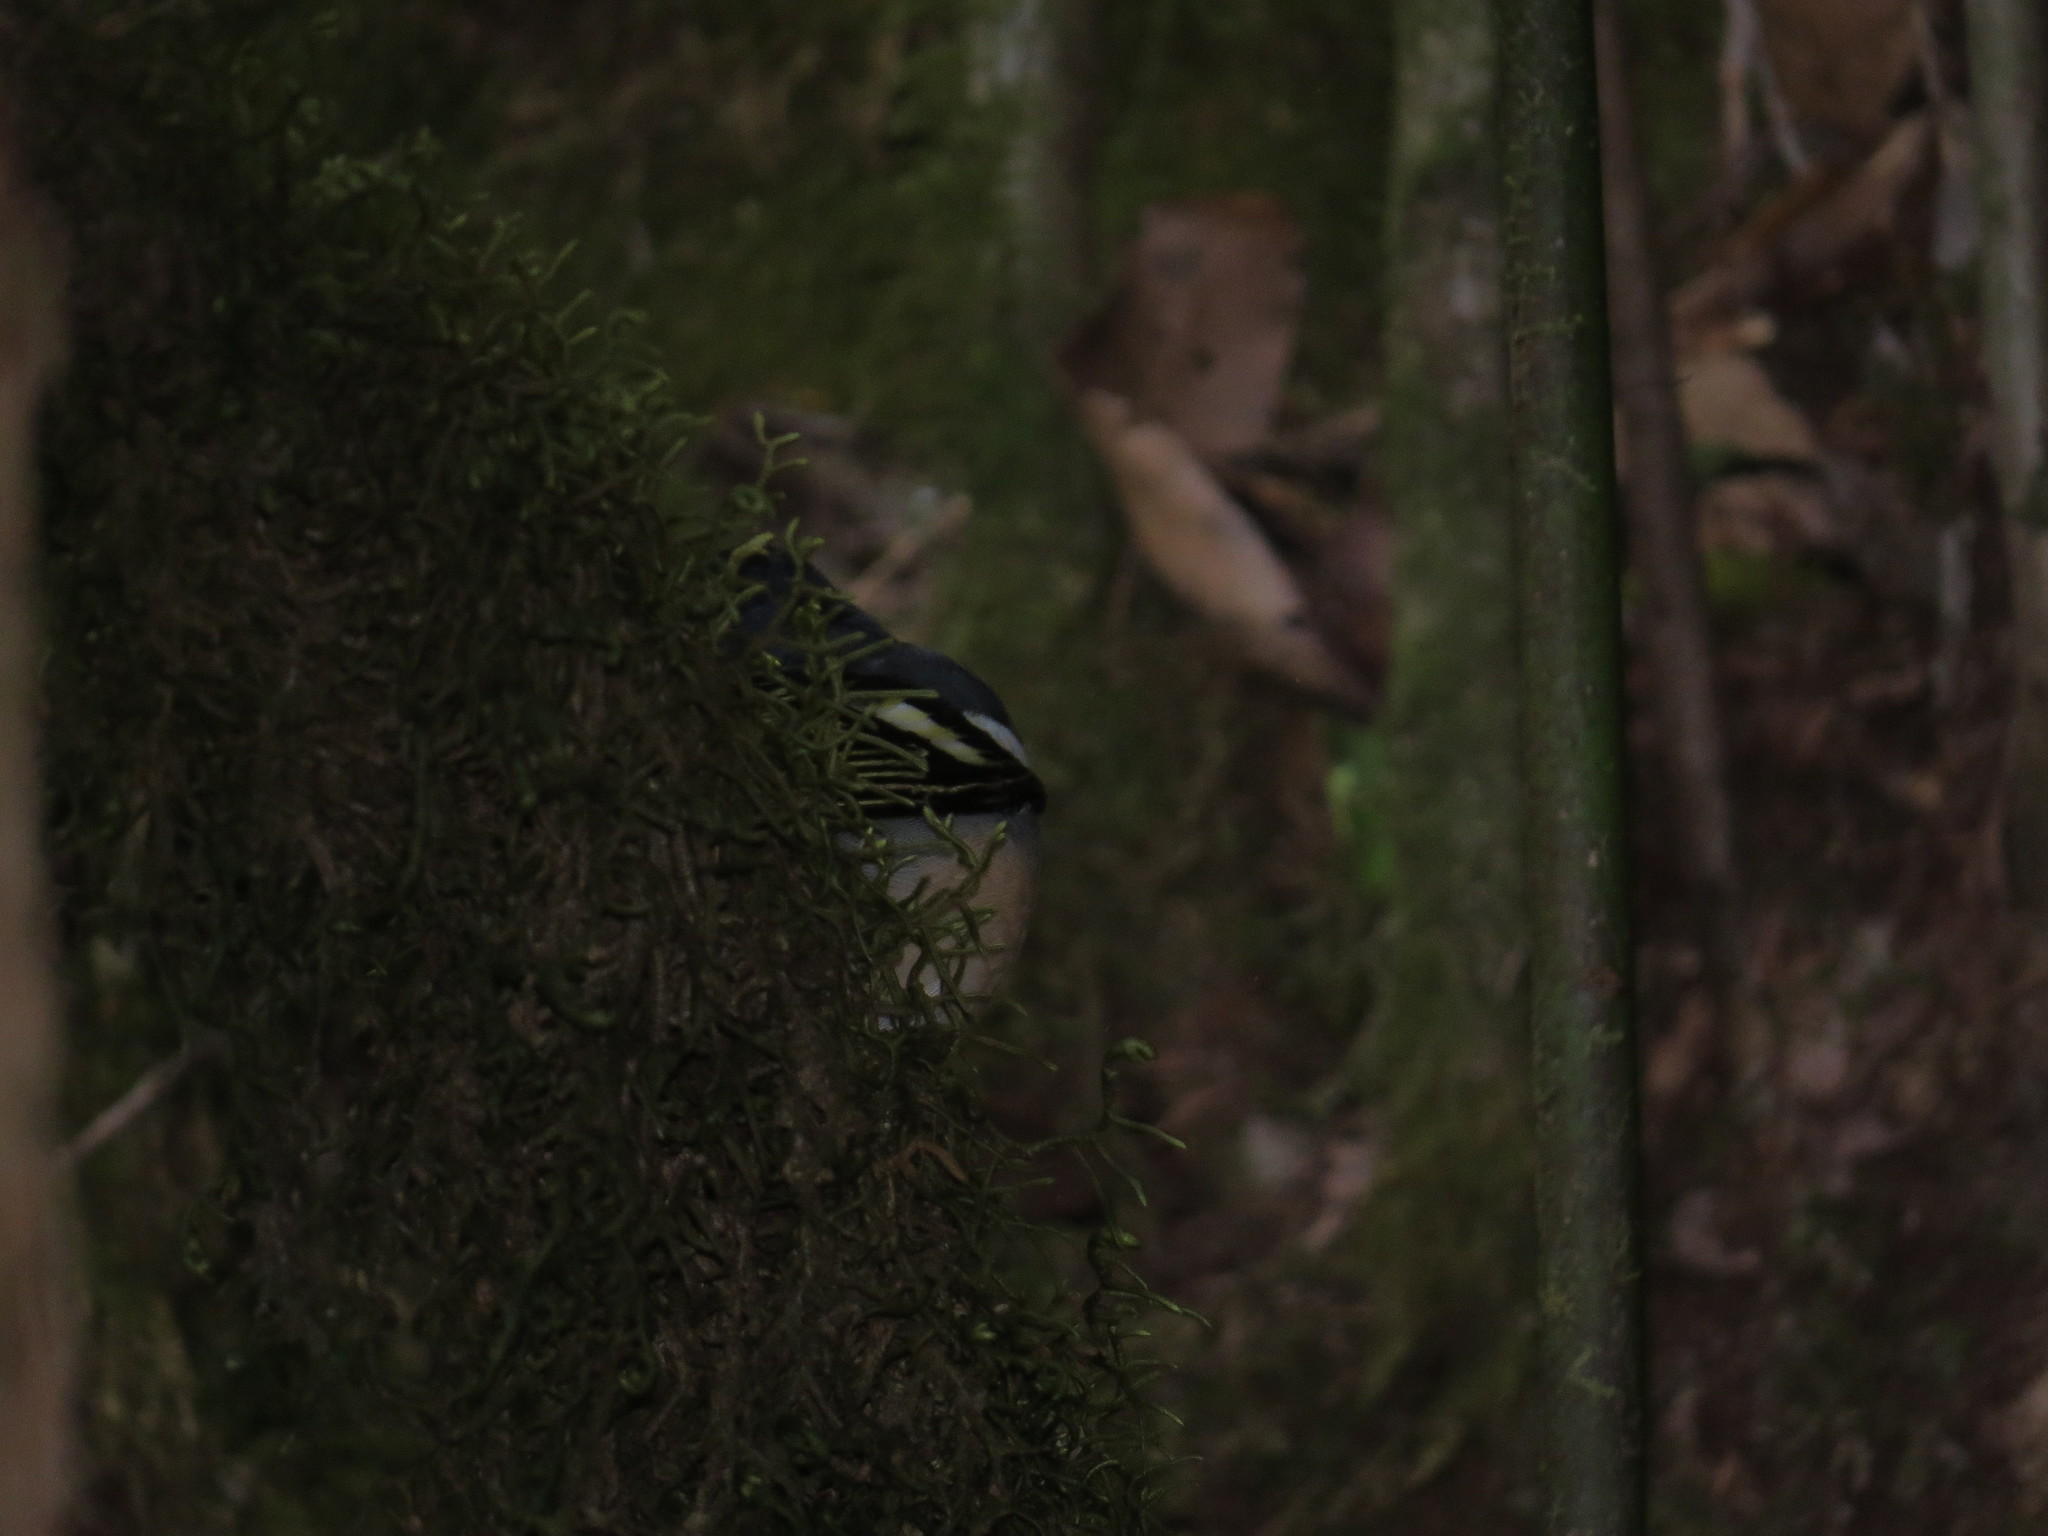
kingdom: Animalia
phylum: Chordata
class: Aves
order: Passeriformes
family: Fringillidae
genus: Fringilla
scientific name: Fringilla canariensis
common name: Canary islands chaffinch
